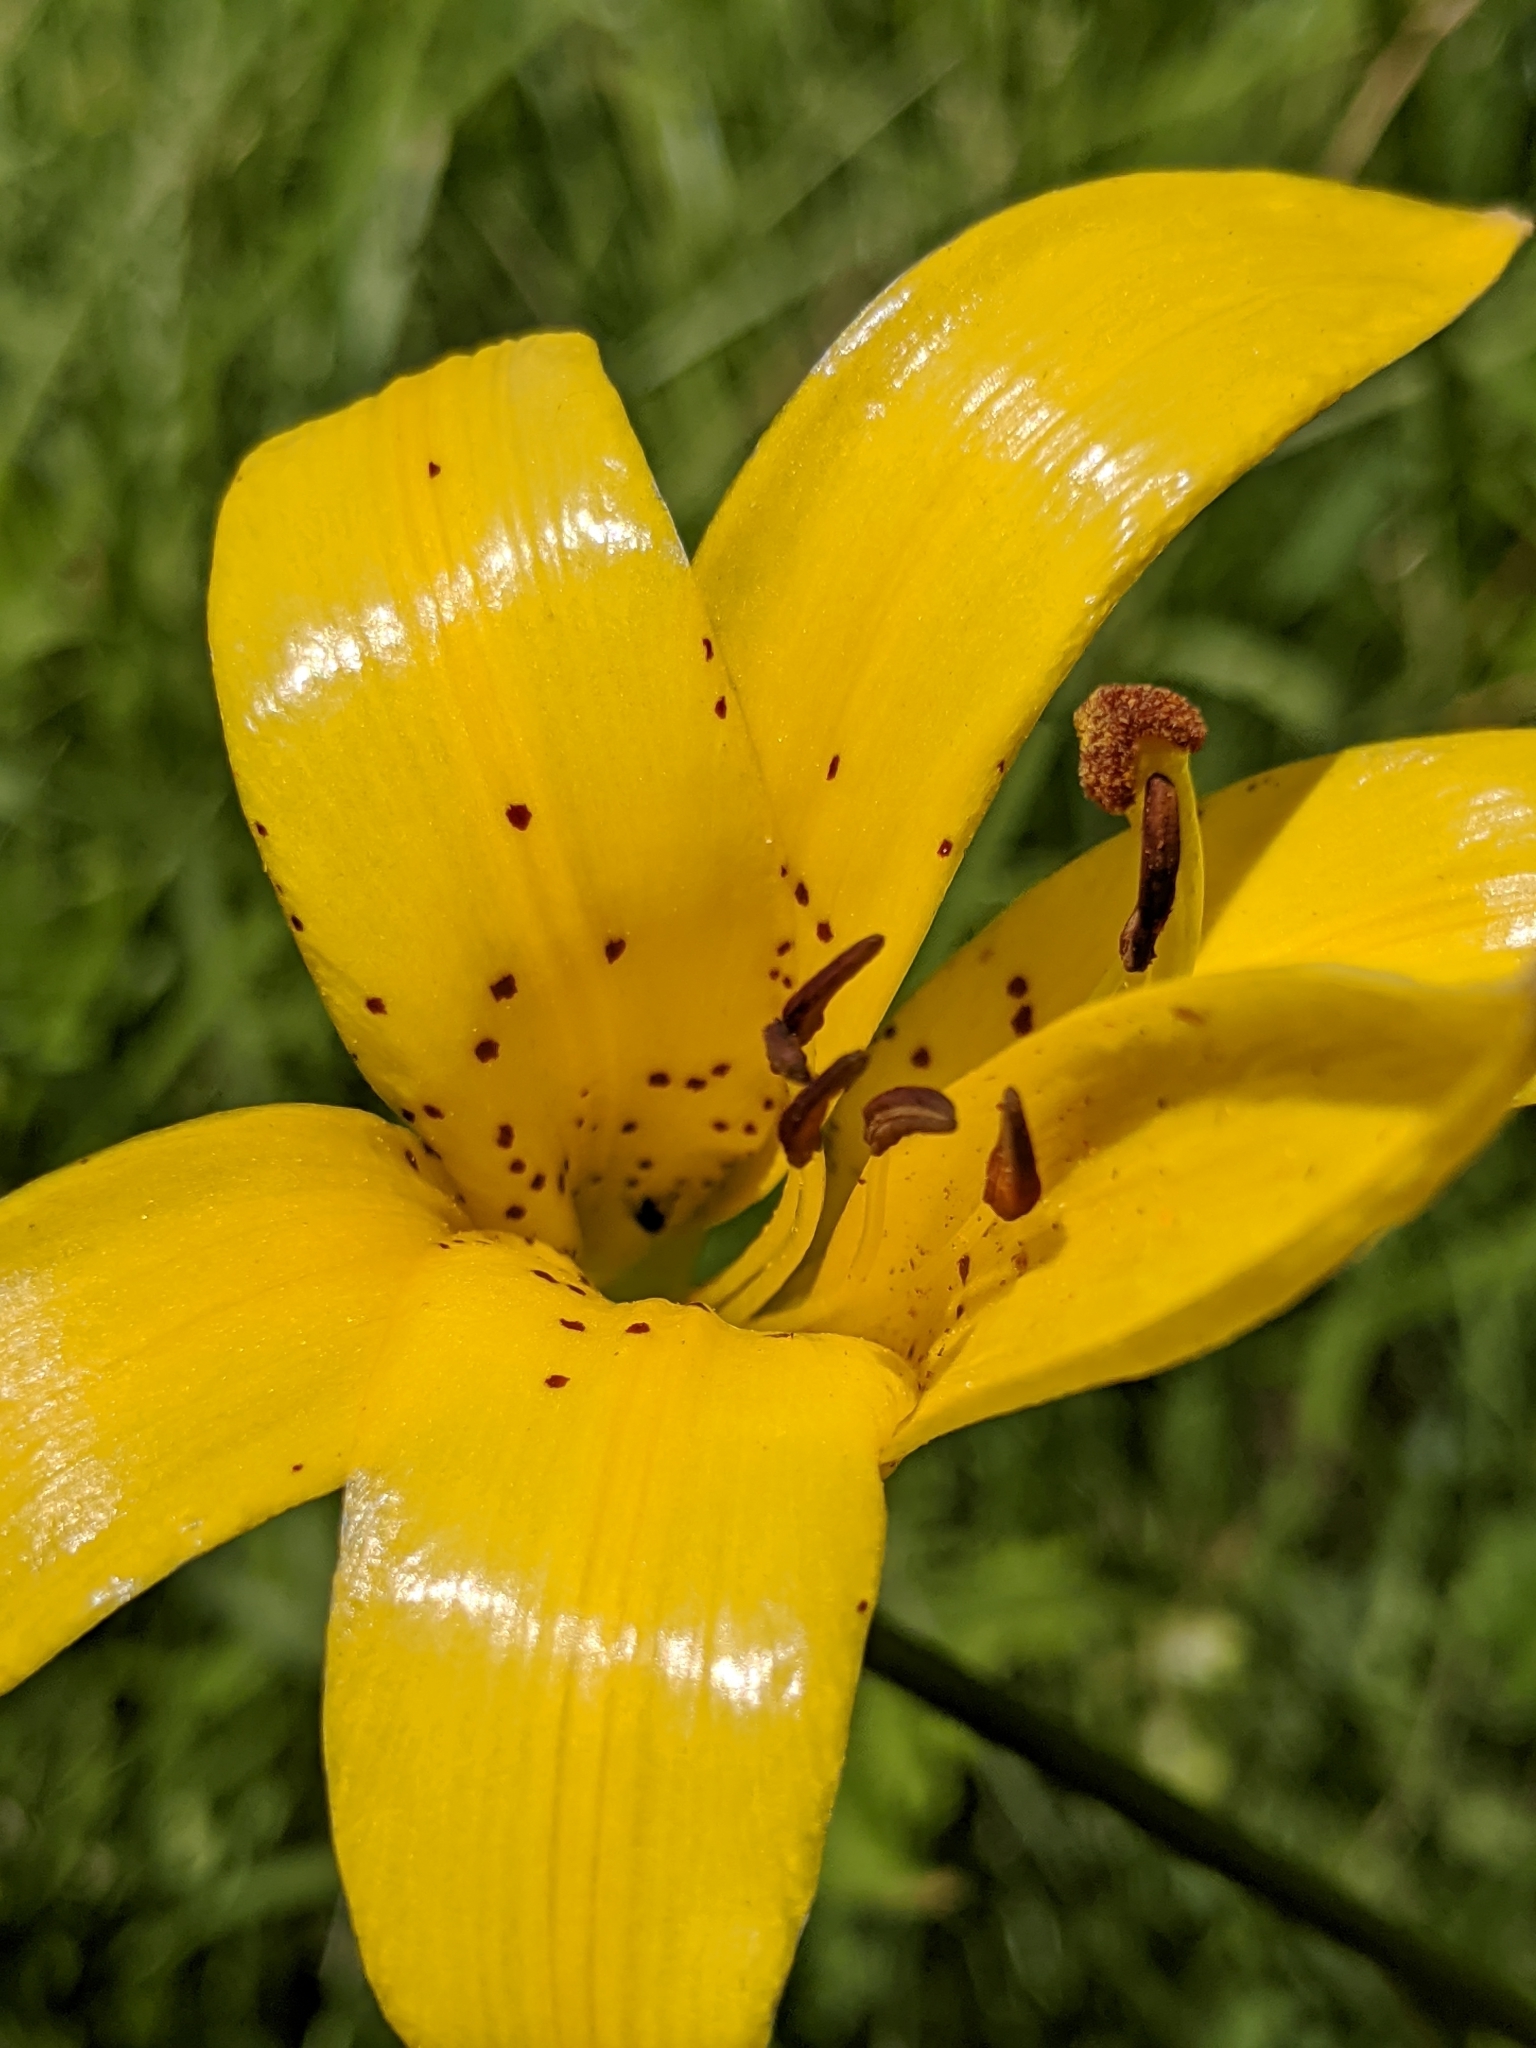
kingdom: Plantae
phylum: Tracheophyta
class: Liliopsida
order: Liliales
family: Liliaceae
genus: Lilium
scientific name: Lilium parryi
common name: Lemon lily
